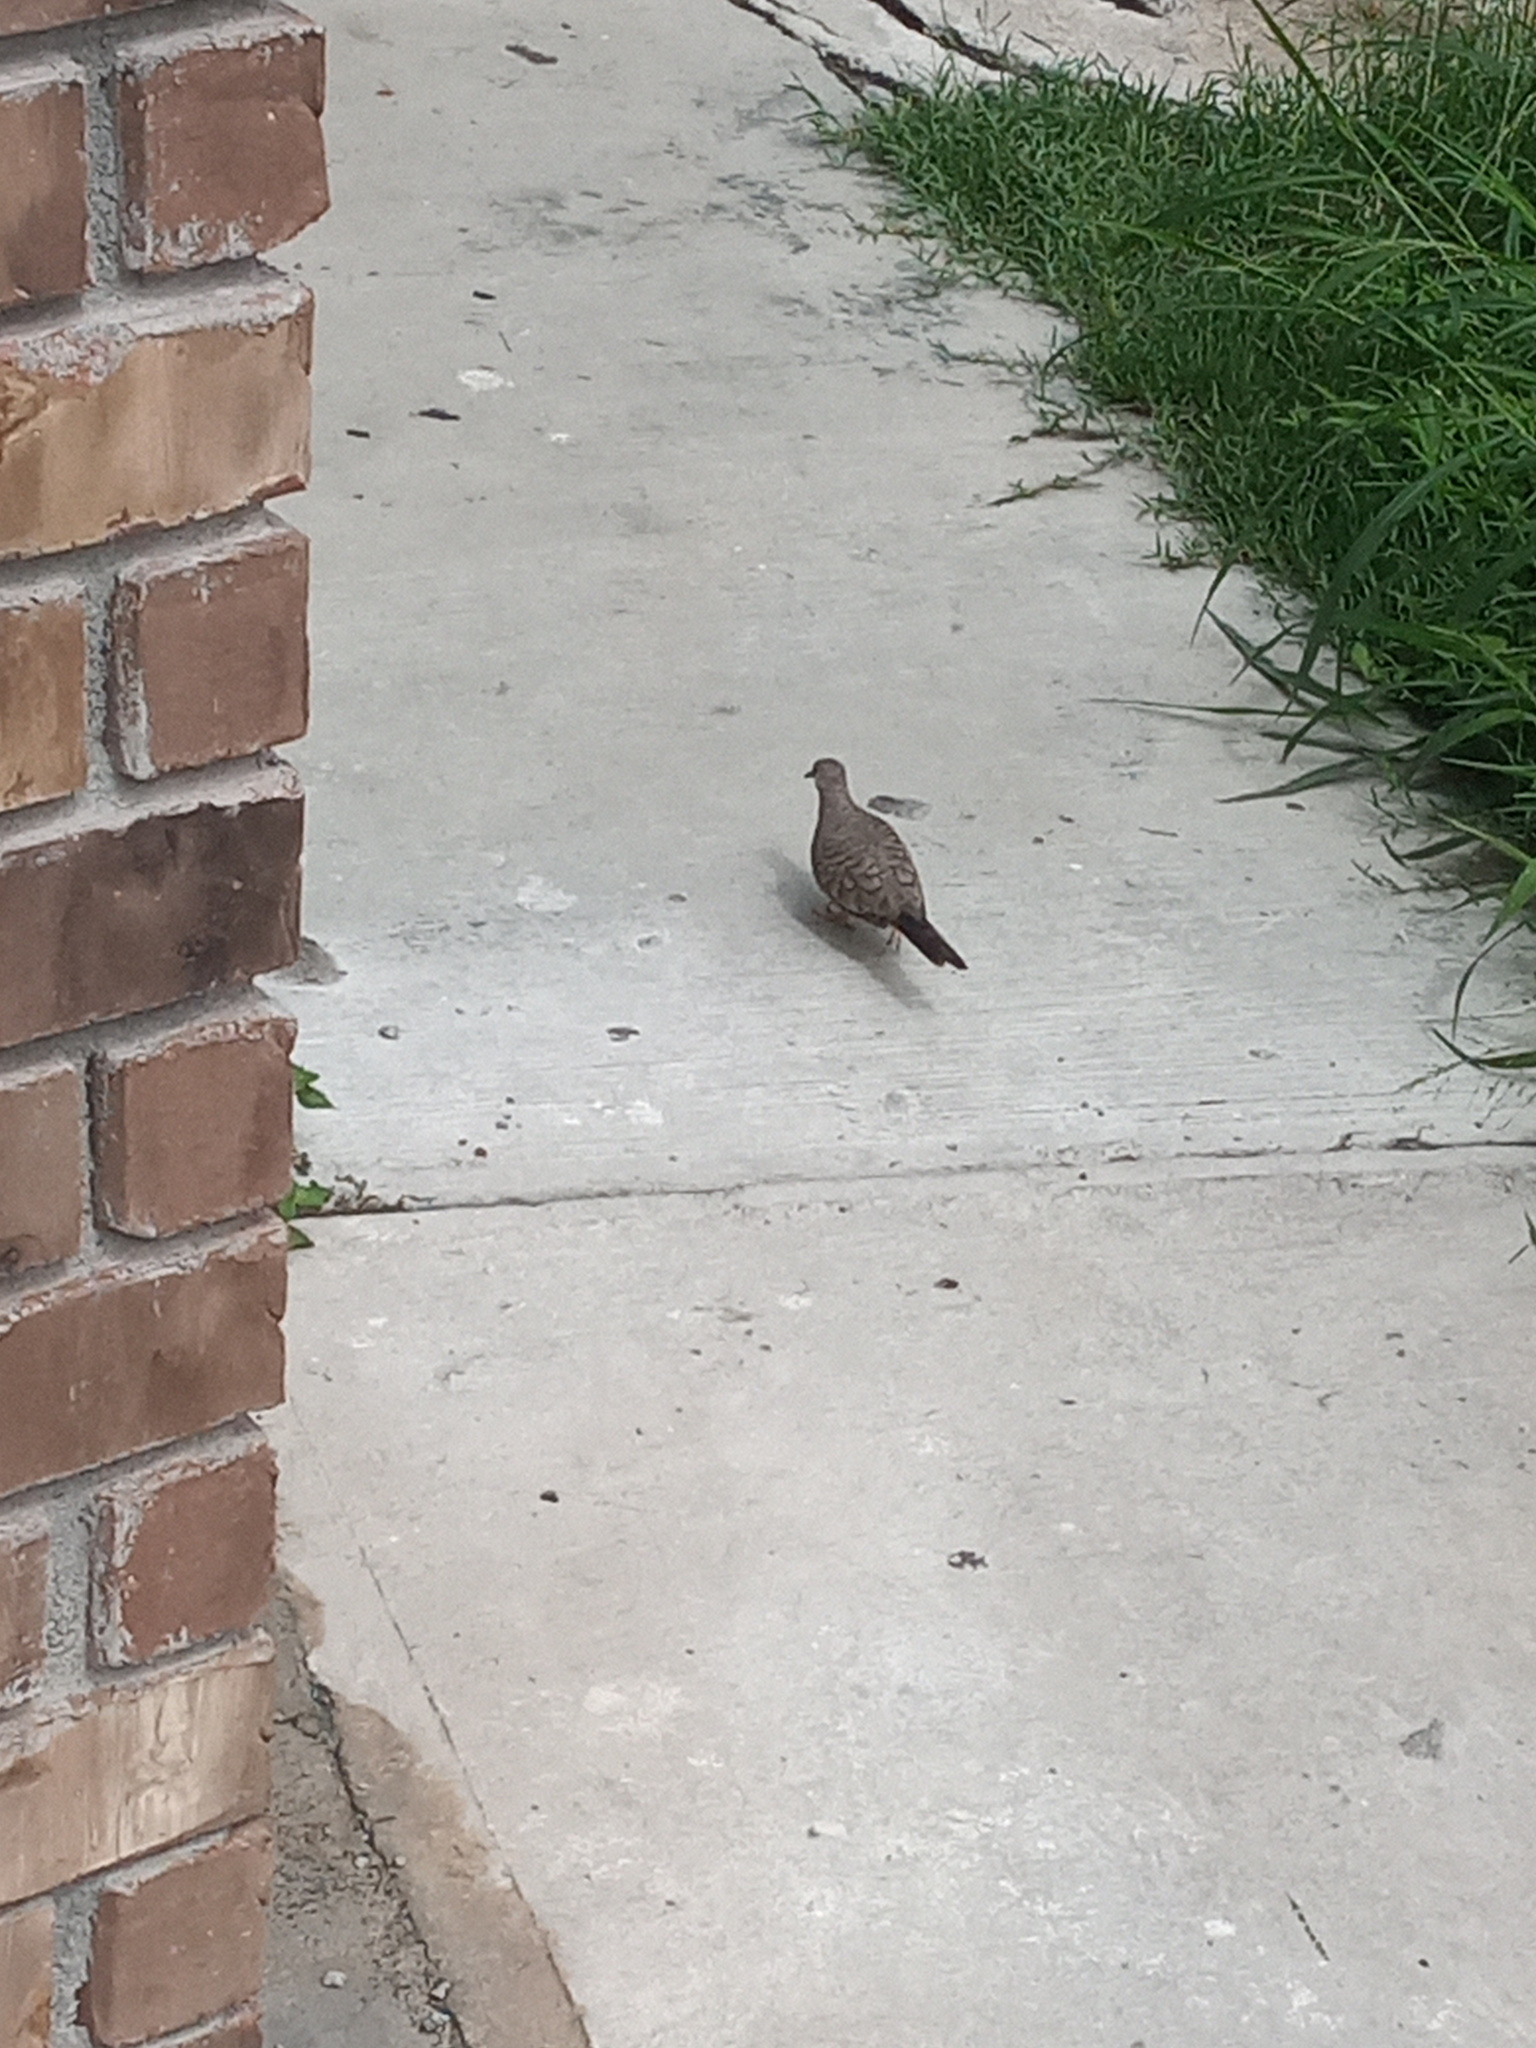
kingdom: Animalia
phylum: Chordata
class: Aves
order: Columbiformes
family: Columbidae
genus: Columbina
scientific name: Columbina inca
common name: Inca dove
